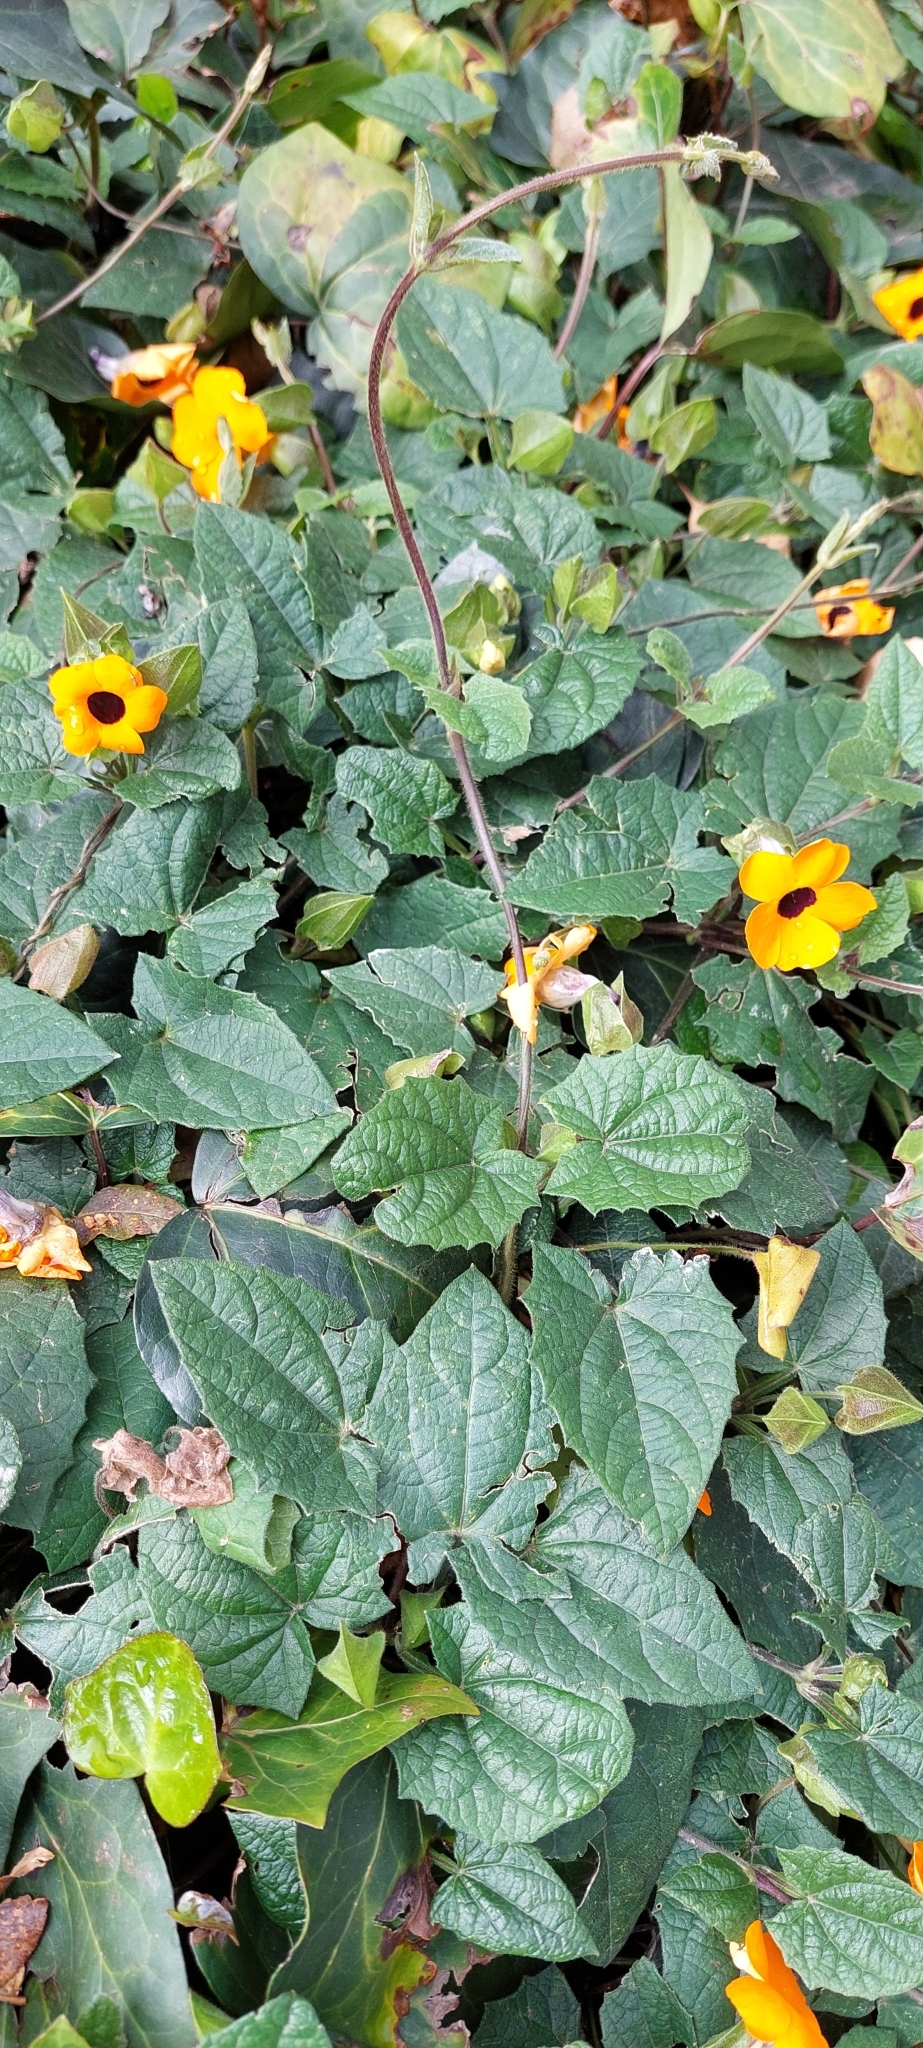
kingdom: Plantae
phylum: Tracheophyta
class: Magnoliopsida
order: Lamiales
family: Acanthaceae
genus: Thunbergia
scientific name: Thunbergia alata
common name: Blackeyed susan vine
